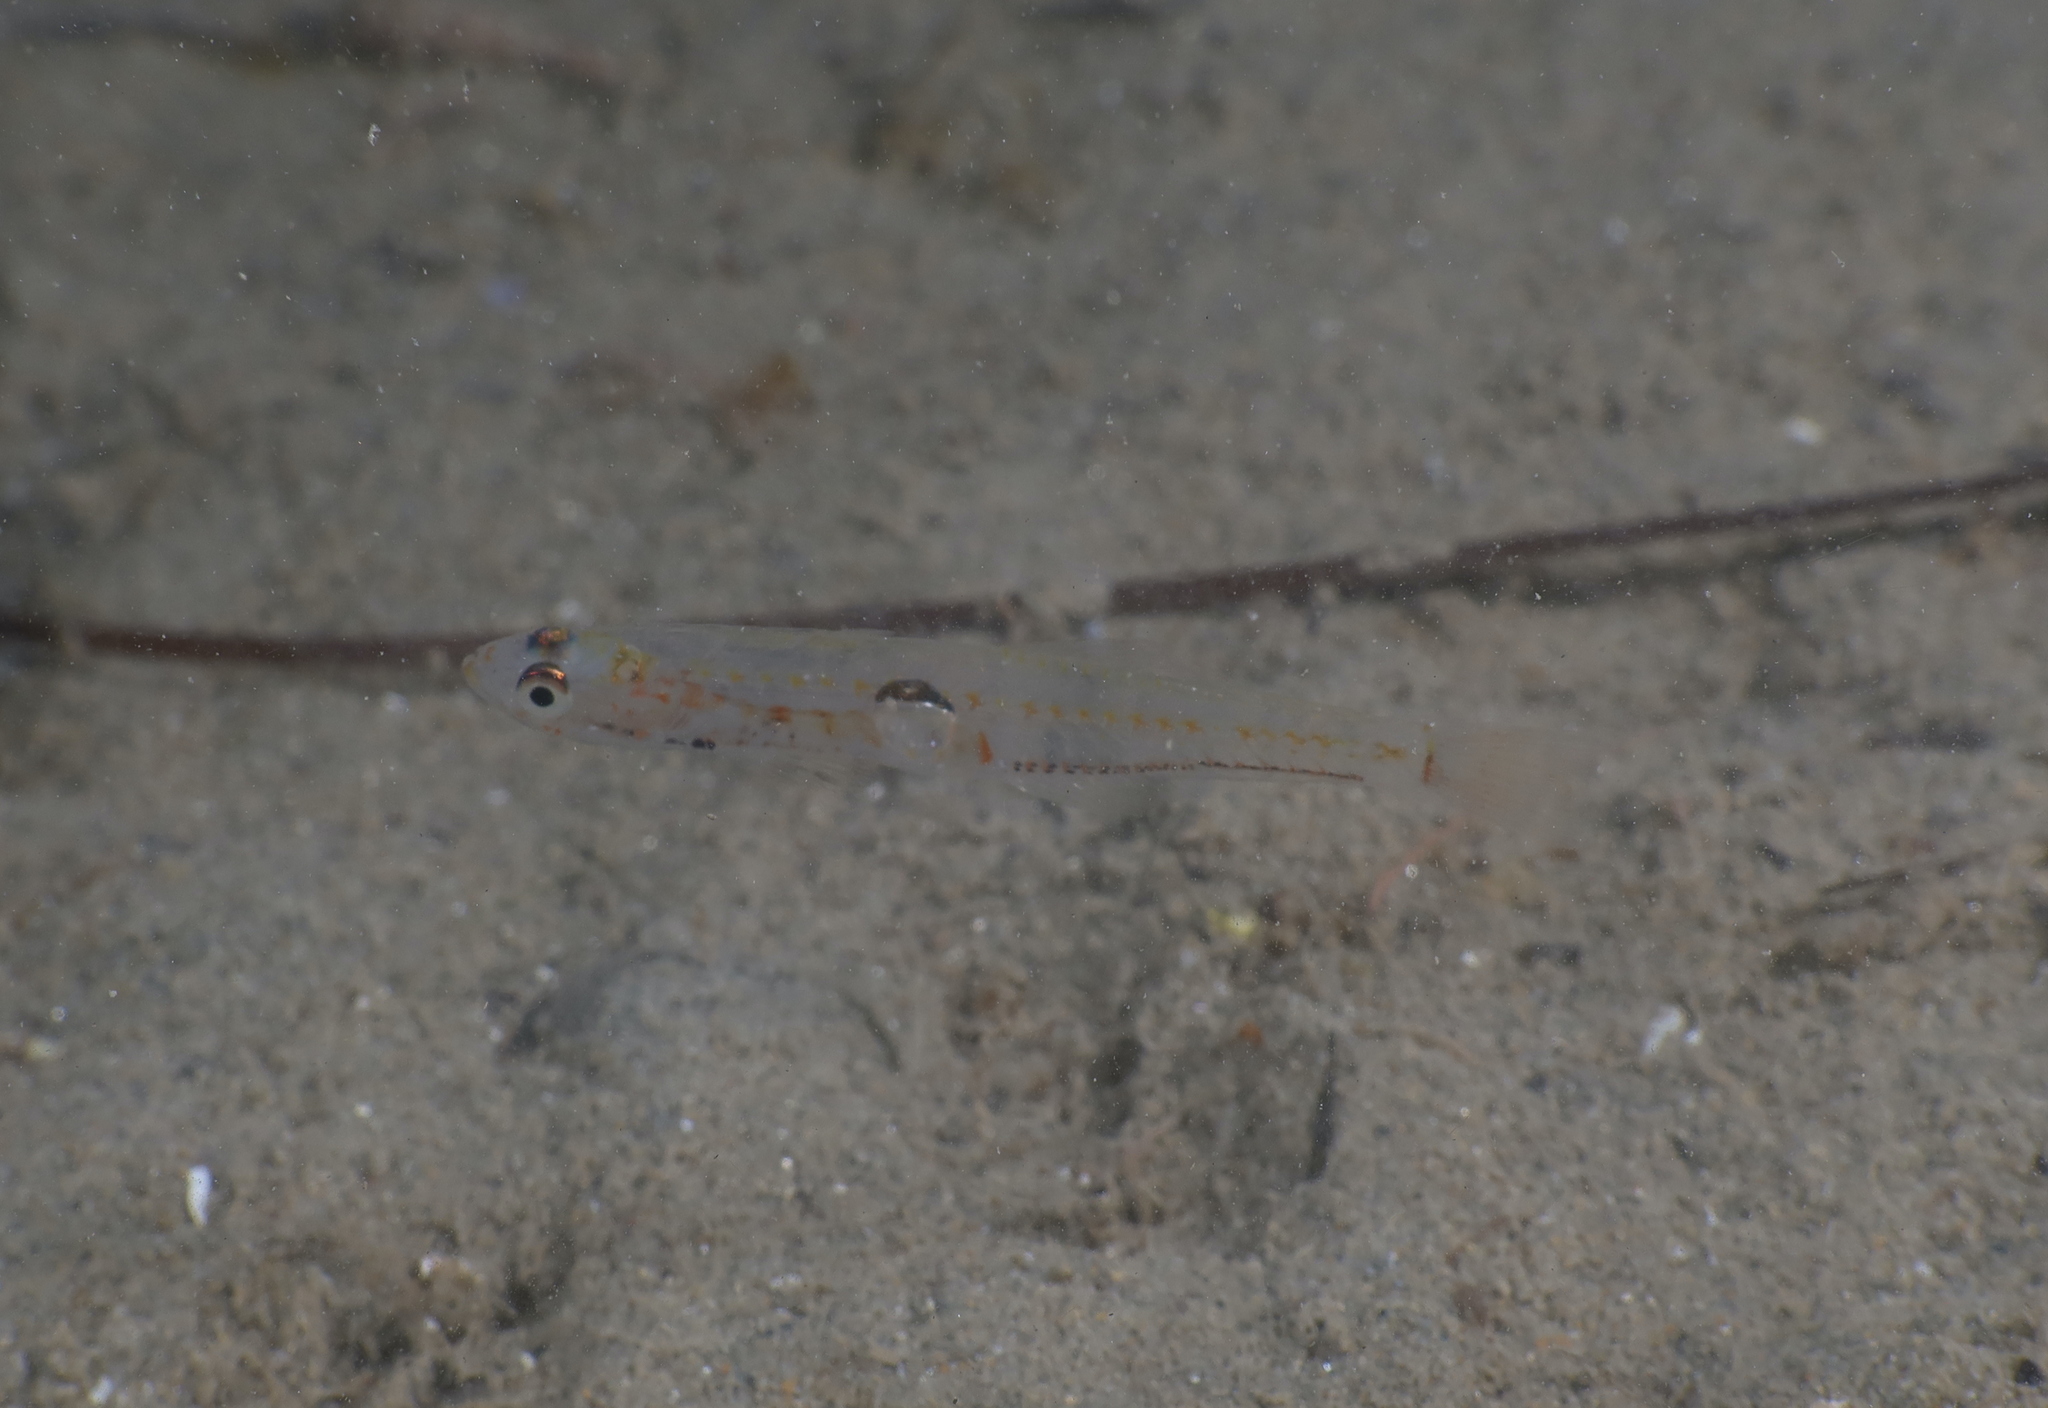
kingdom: Animalia
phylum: Chordata
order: Perciformes
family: Gobiidae
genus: Aphia
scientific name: Aphia minuta
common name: Transparent goby
